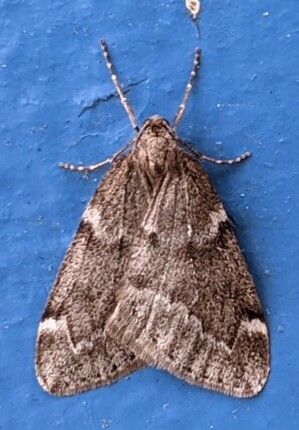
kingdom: Animalia
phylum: Arthropoda
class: Insecta
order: Lepidoptera
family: Geometridae
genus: Alsophila
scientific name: Alsophila pometaria
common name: Fall cankerworm
